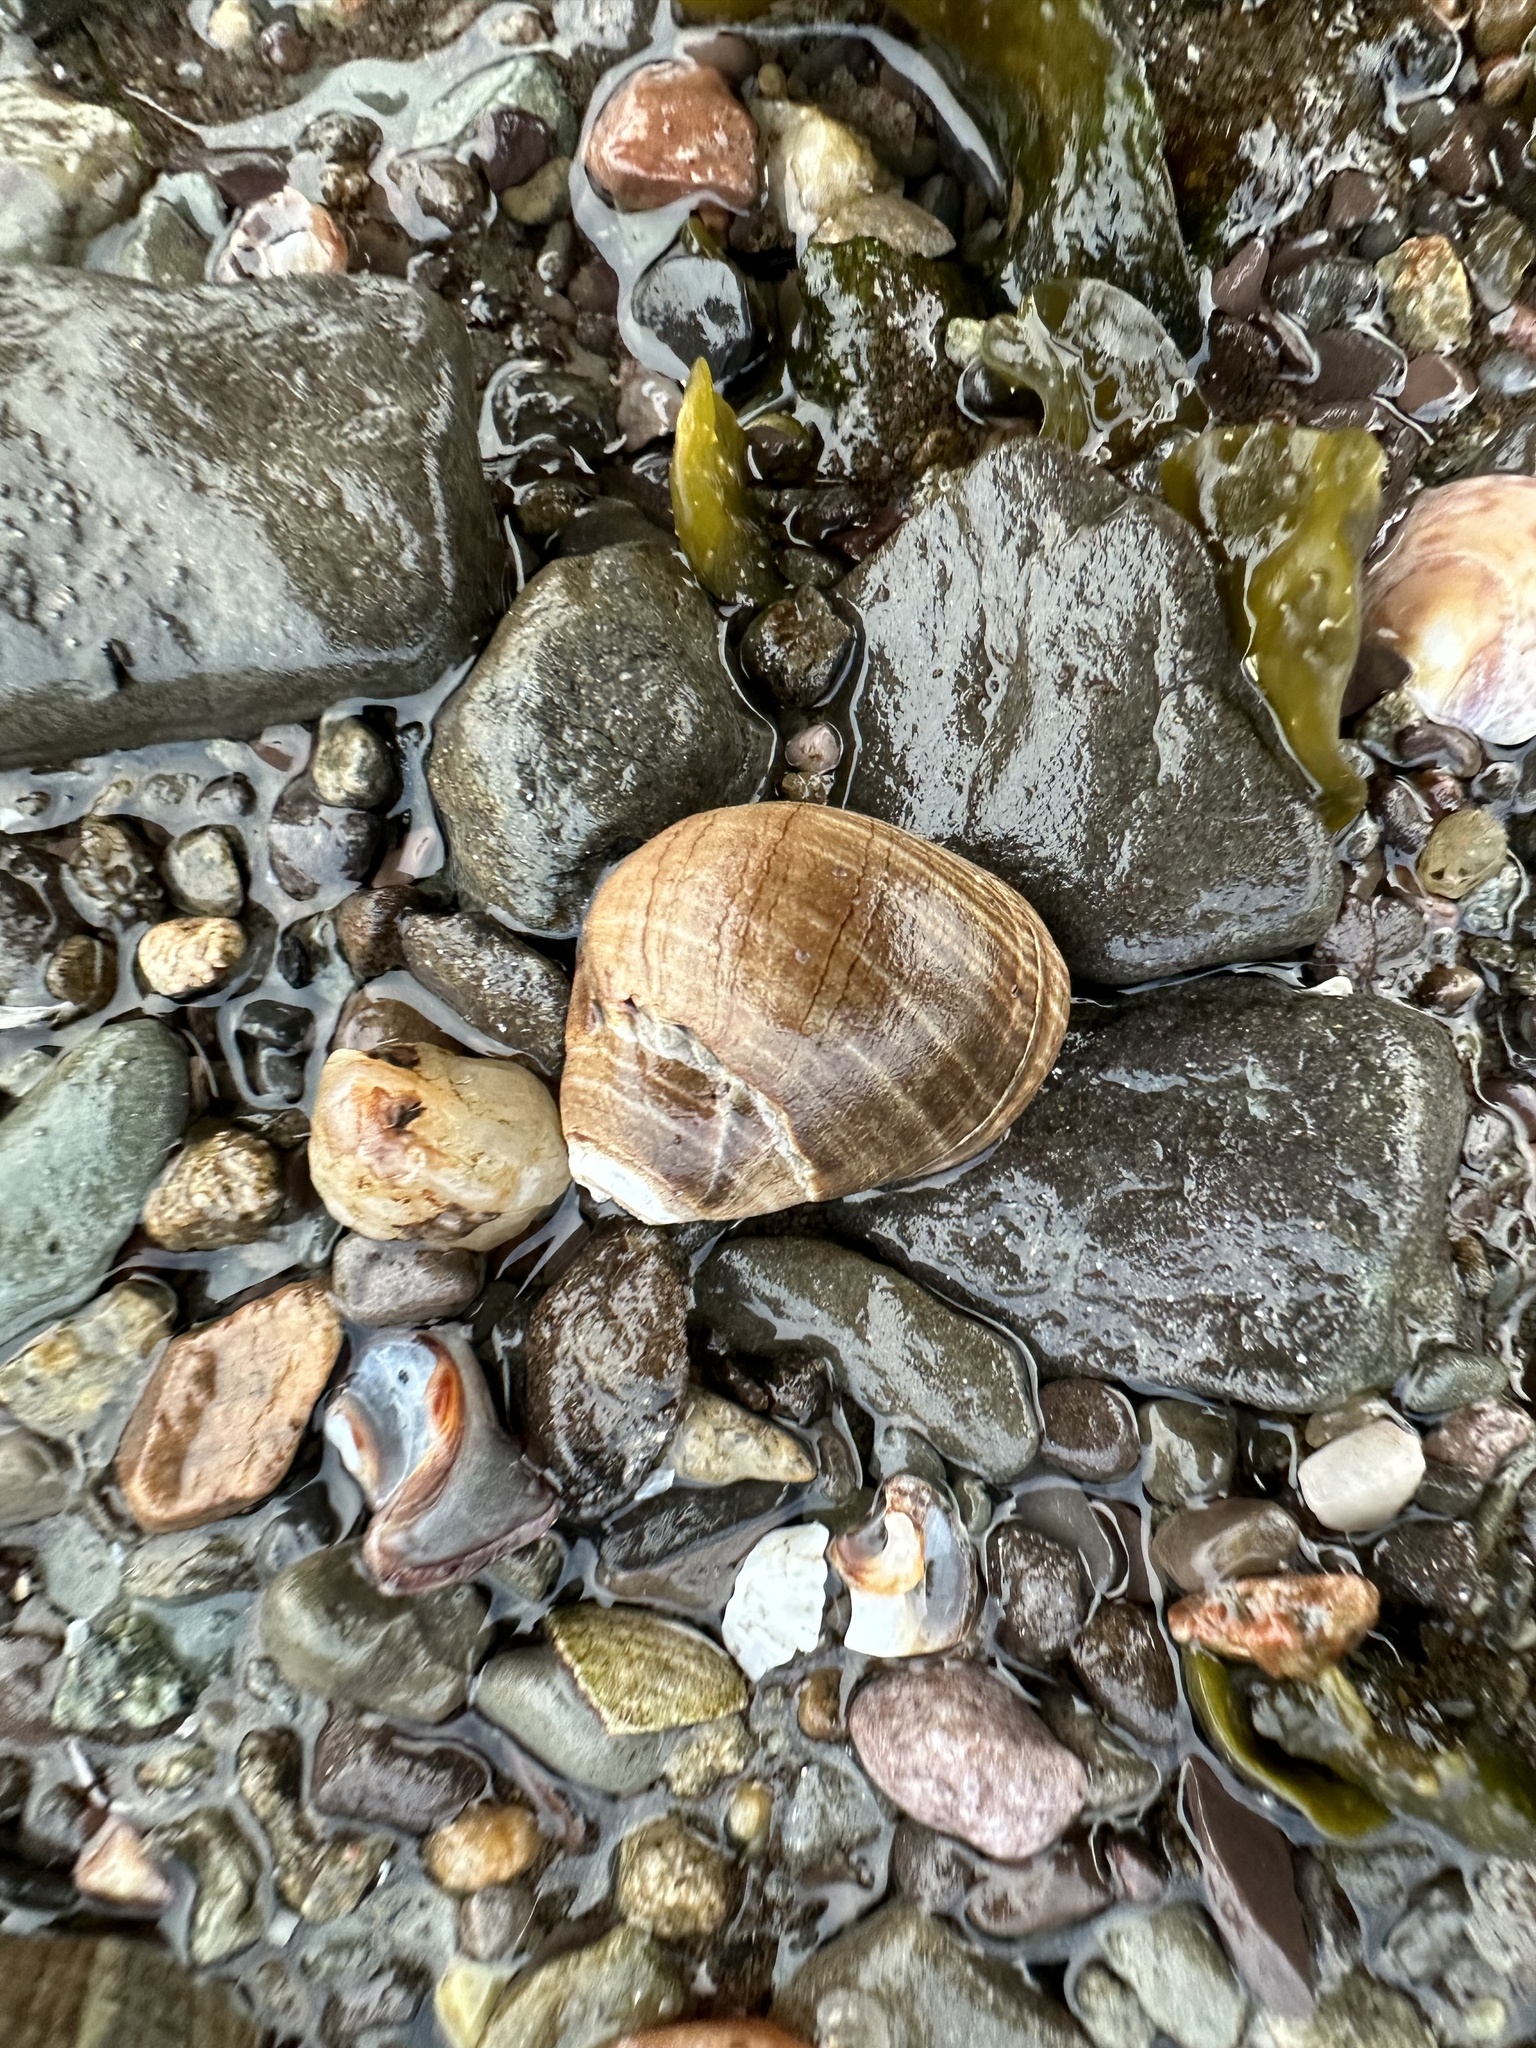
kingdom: Animalia
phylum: Mollusca
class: Gastropoda
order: Littorinimorpha
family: Littorinidae
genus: Littorina
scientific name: Littorina littorea
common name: Common periwinkle
